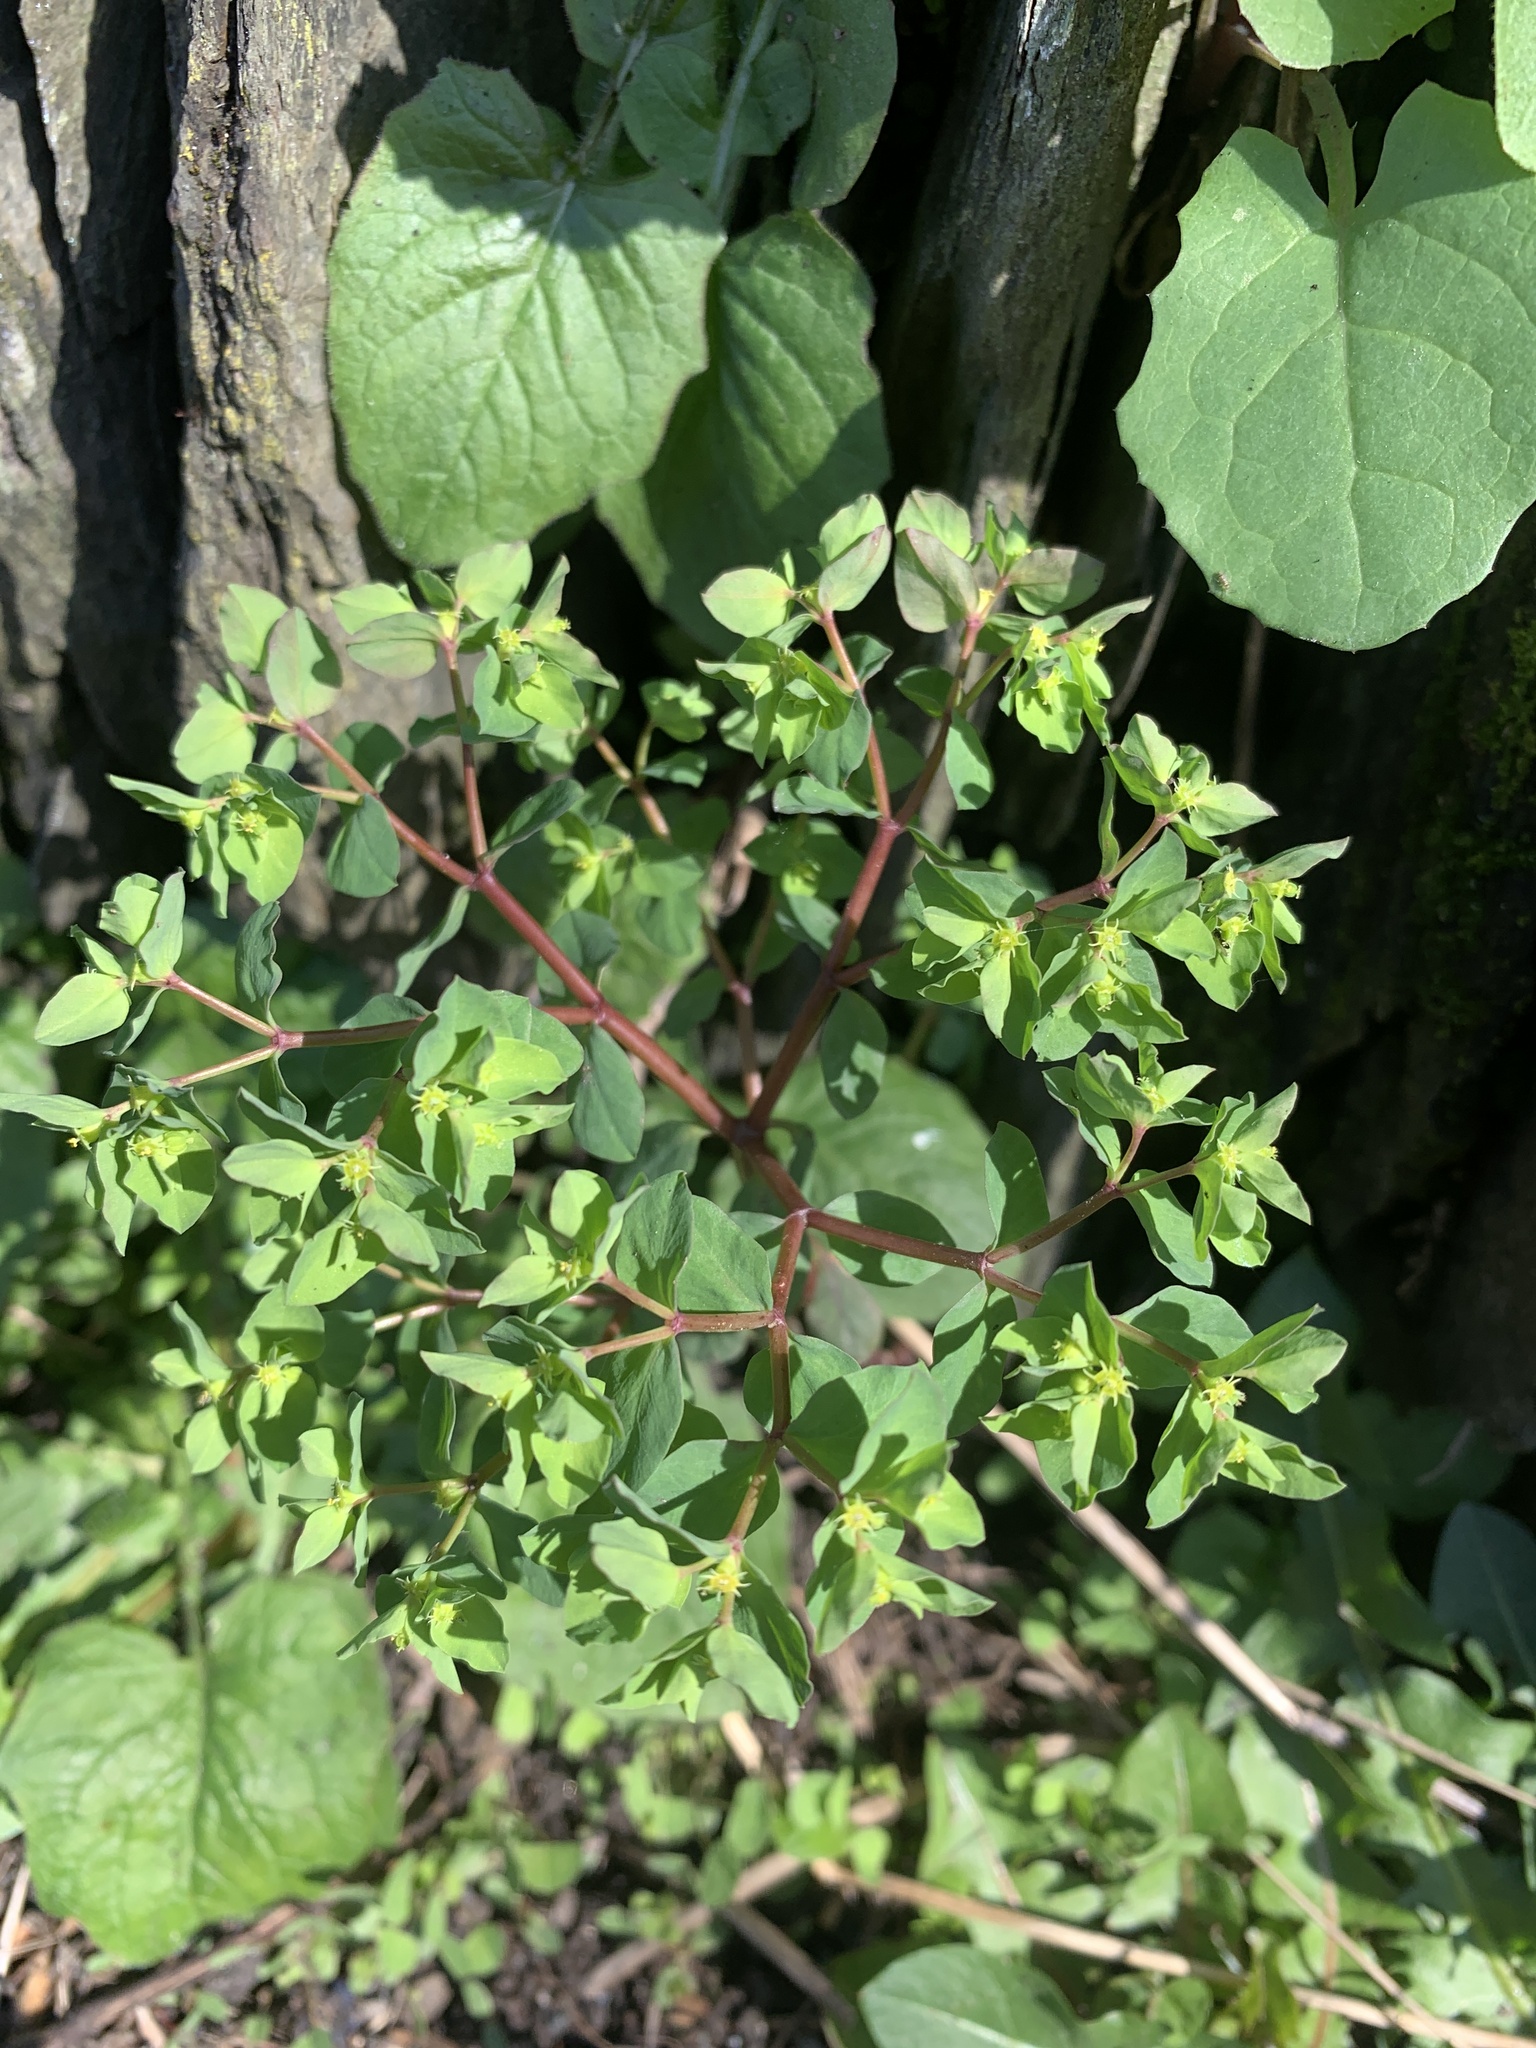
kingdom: Plantae
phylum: Tracheophyta
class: Magnoliopsida
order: Malpighiales
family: Euphorbiaceae
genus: Euphorbia
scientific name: Euphorbia peplus
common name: Petty spurge
